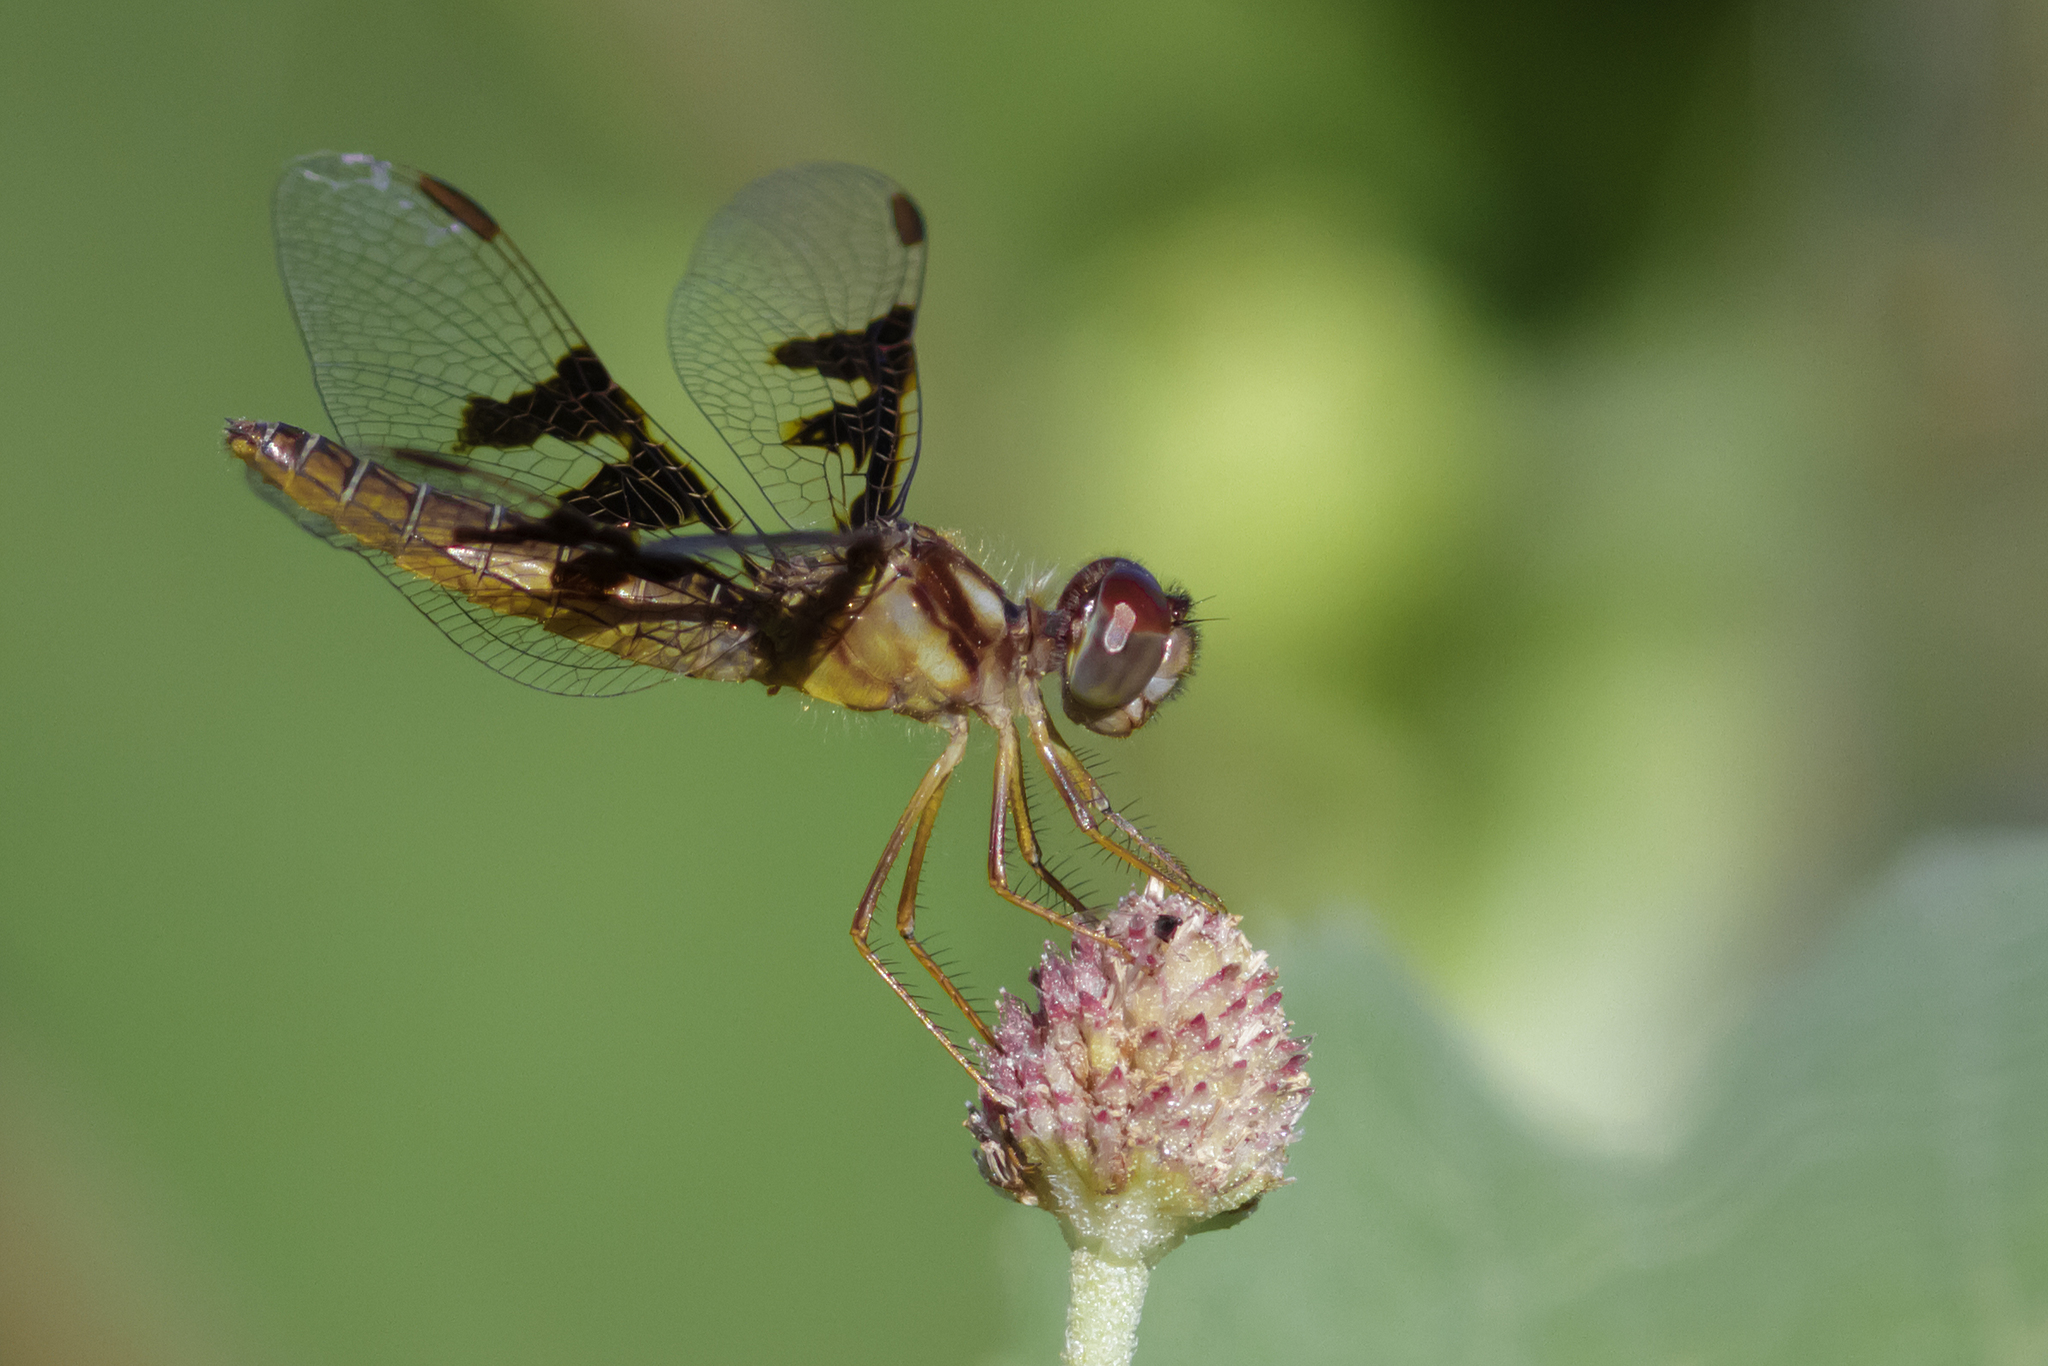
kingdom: Animalia
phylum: Arthropoda
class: Insecta
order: Odonata
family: Libellulidae
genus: Perithemis
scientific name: Perithemis tenera
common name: Eastern amberwing
